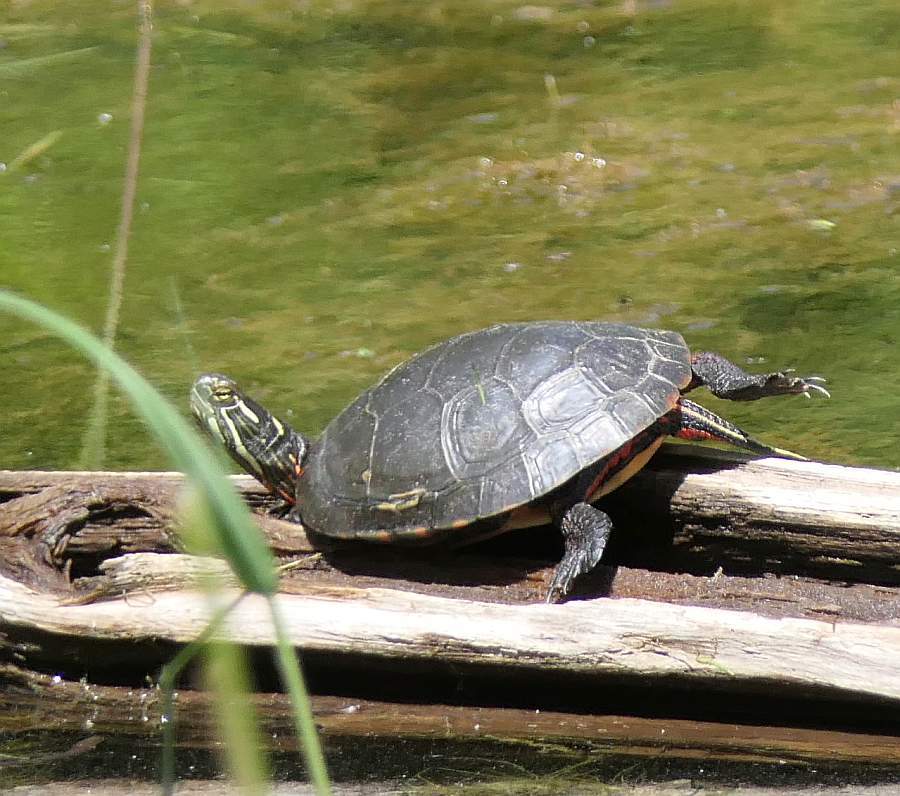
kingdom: Animalia
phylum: Chordata
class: Testudines
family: Emydidae
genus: Chrysemys
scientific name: Chrysemys picta
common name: Painted turtle
